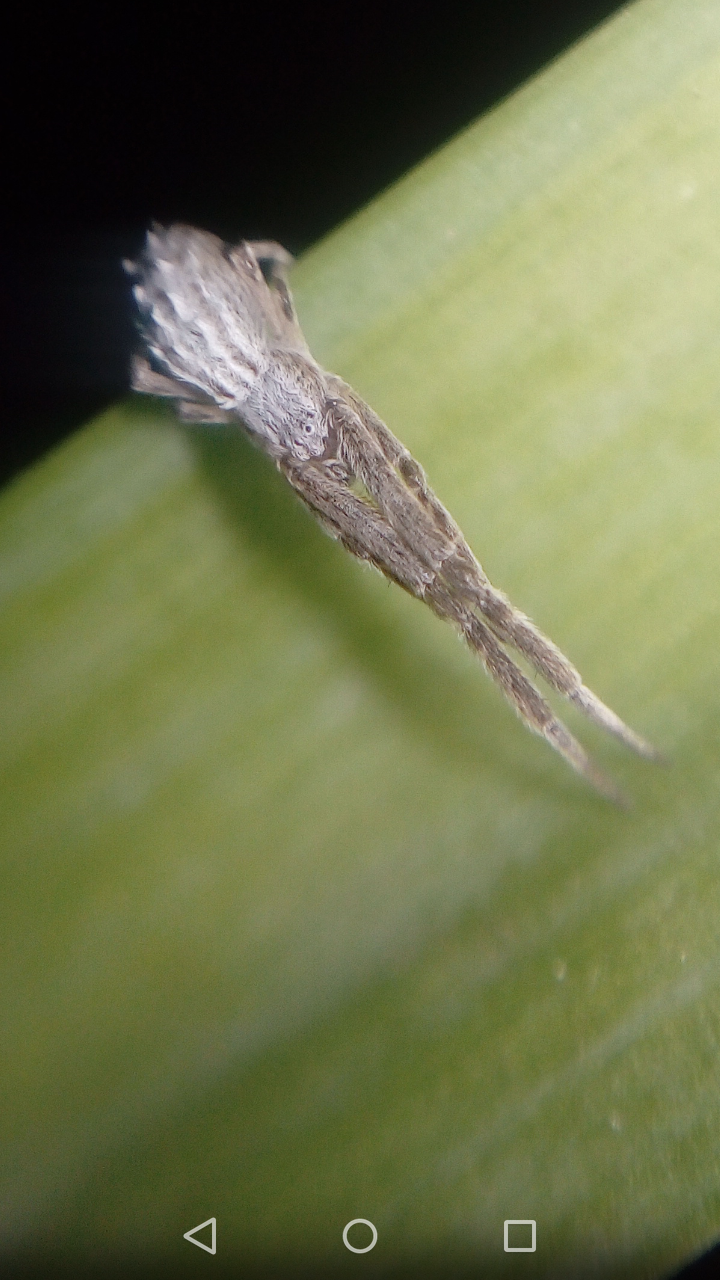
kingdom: Animalia
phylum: Arthropoda
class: Arachnida
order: Araneae
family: Uloboridae
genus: Uloborus
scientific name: Uloborus walckenaerius
